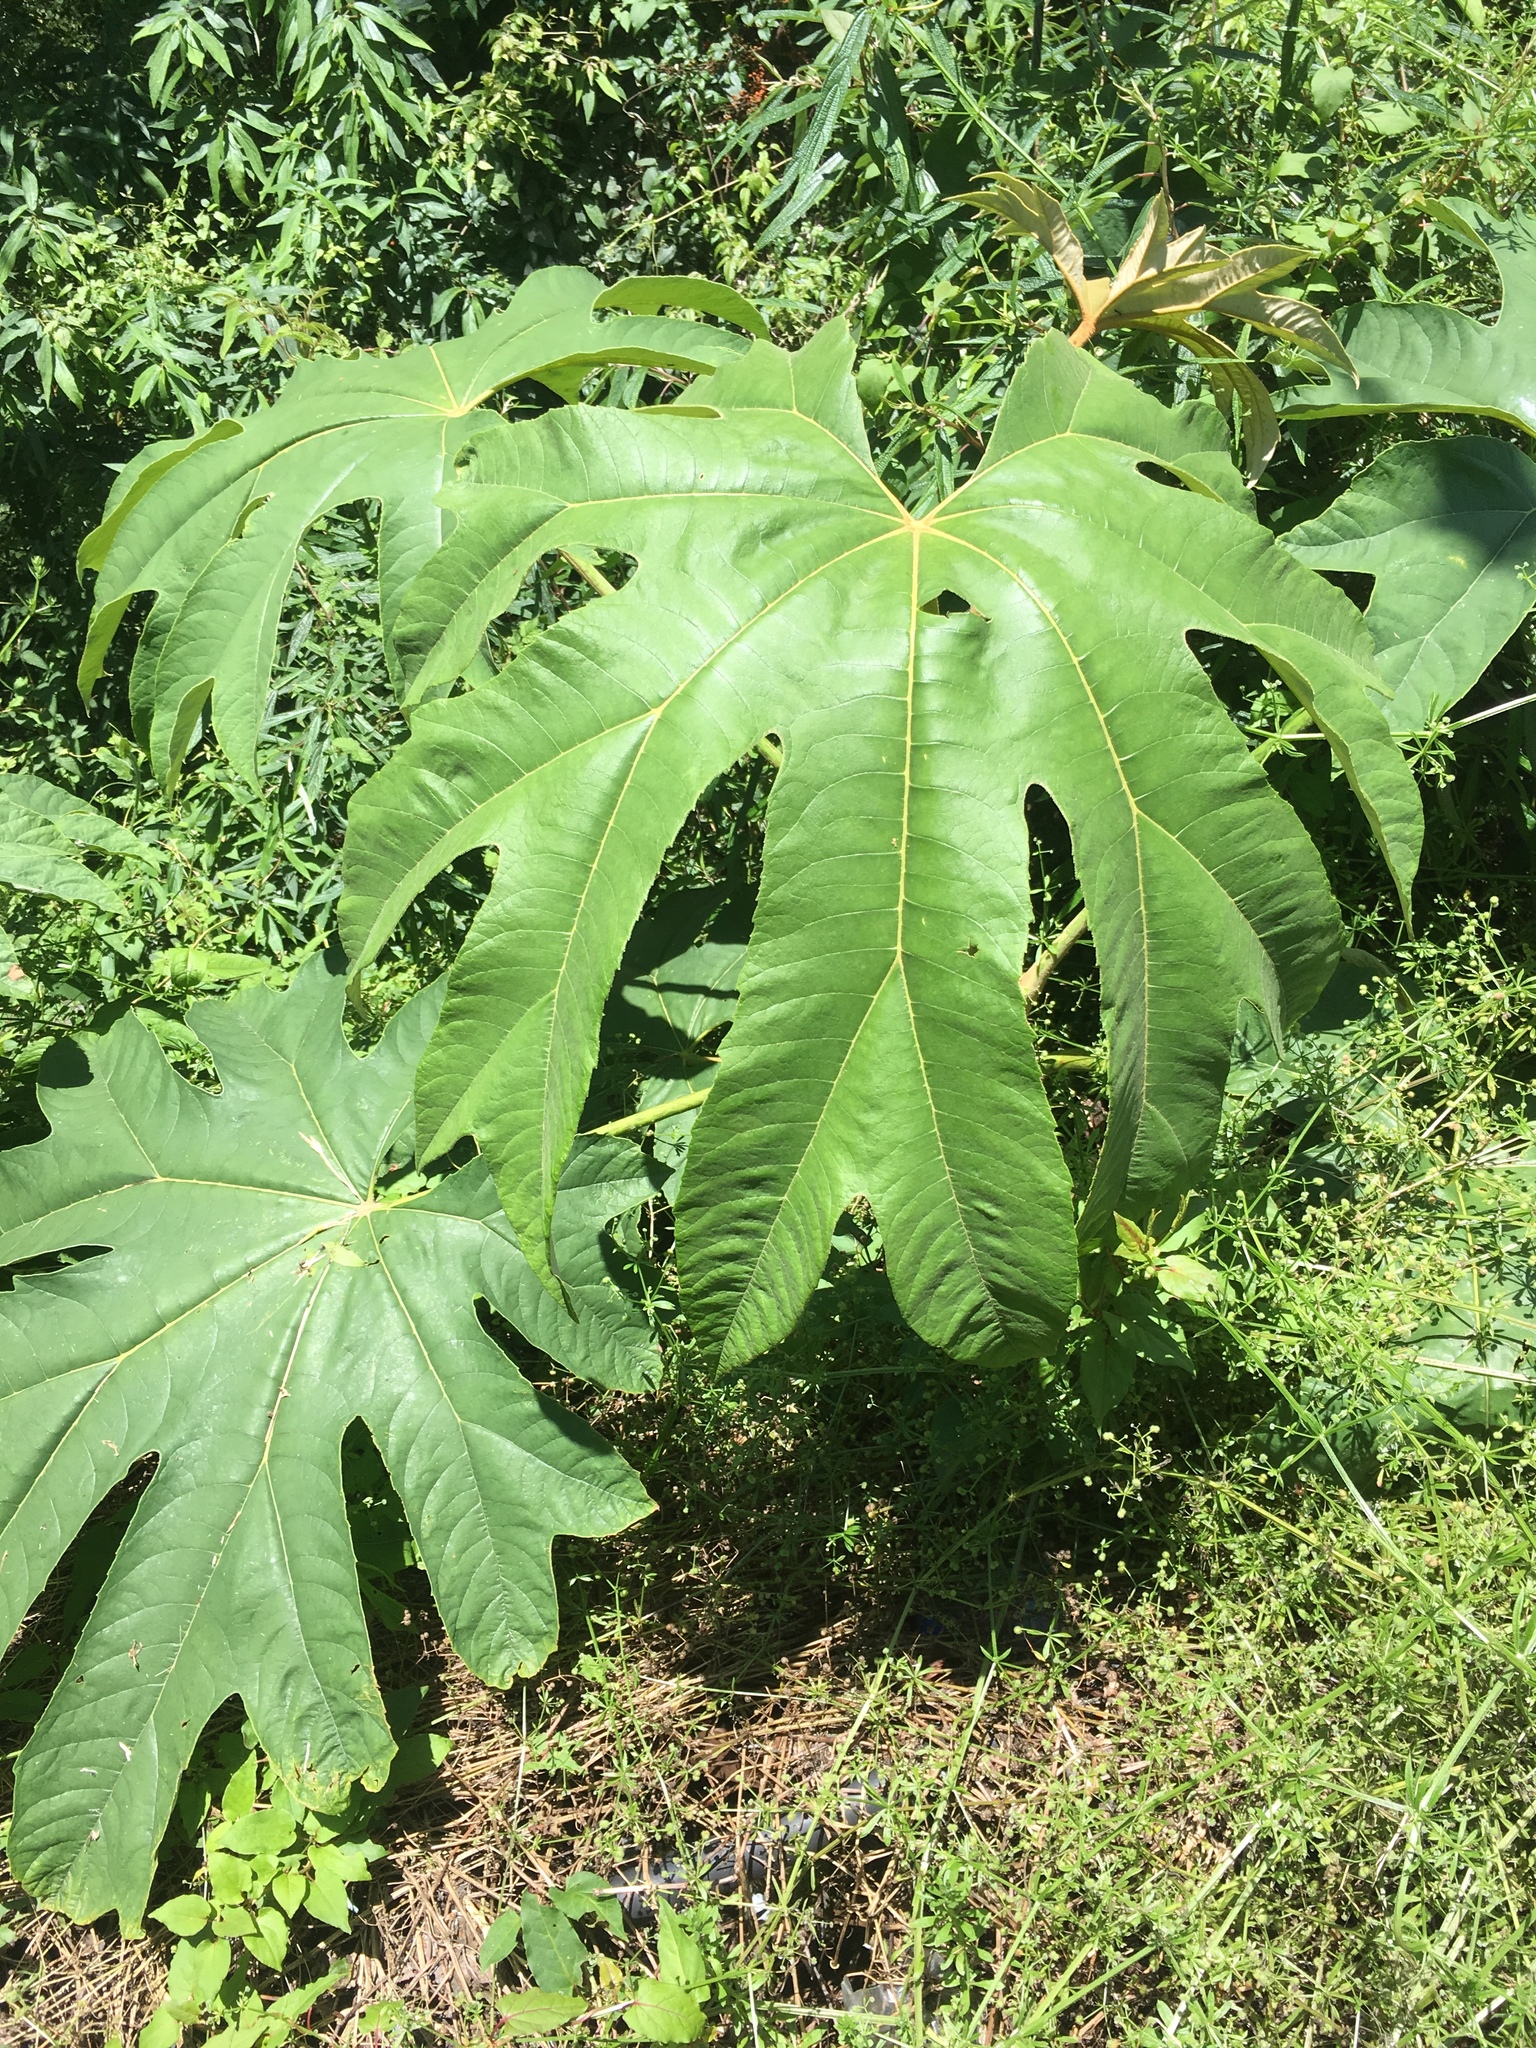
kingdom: Plantae
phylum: Tracheophyta
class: Magnoliopsida
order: Apiales
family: Araliaceae
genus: Tetrapanax
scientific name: Tetrapanax papyrifer
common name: Rice-paper plant
